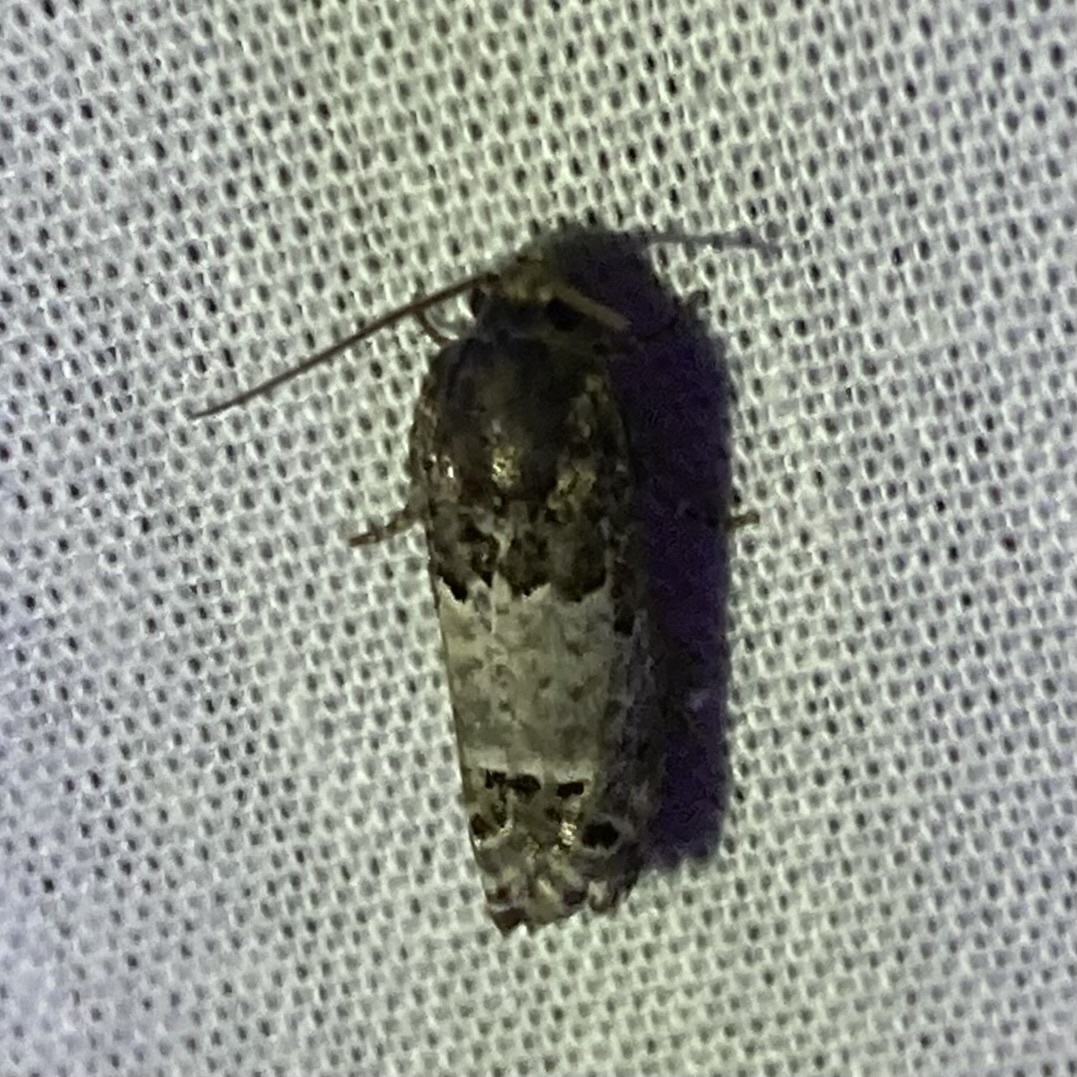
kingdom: Animalia
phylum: Arthropoda
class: Insecta
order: Lepidoptera
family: Tortricidae
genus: Epiblema
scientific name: Epiblema carolinana
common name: Gray-blotched epiblema moth
